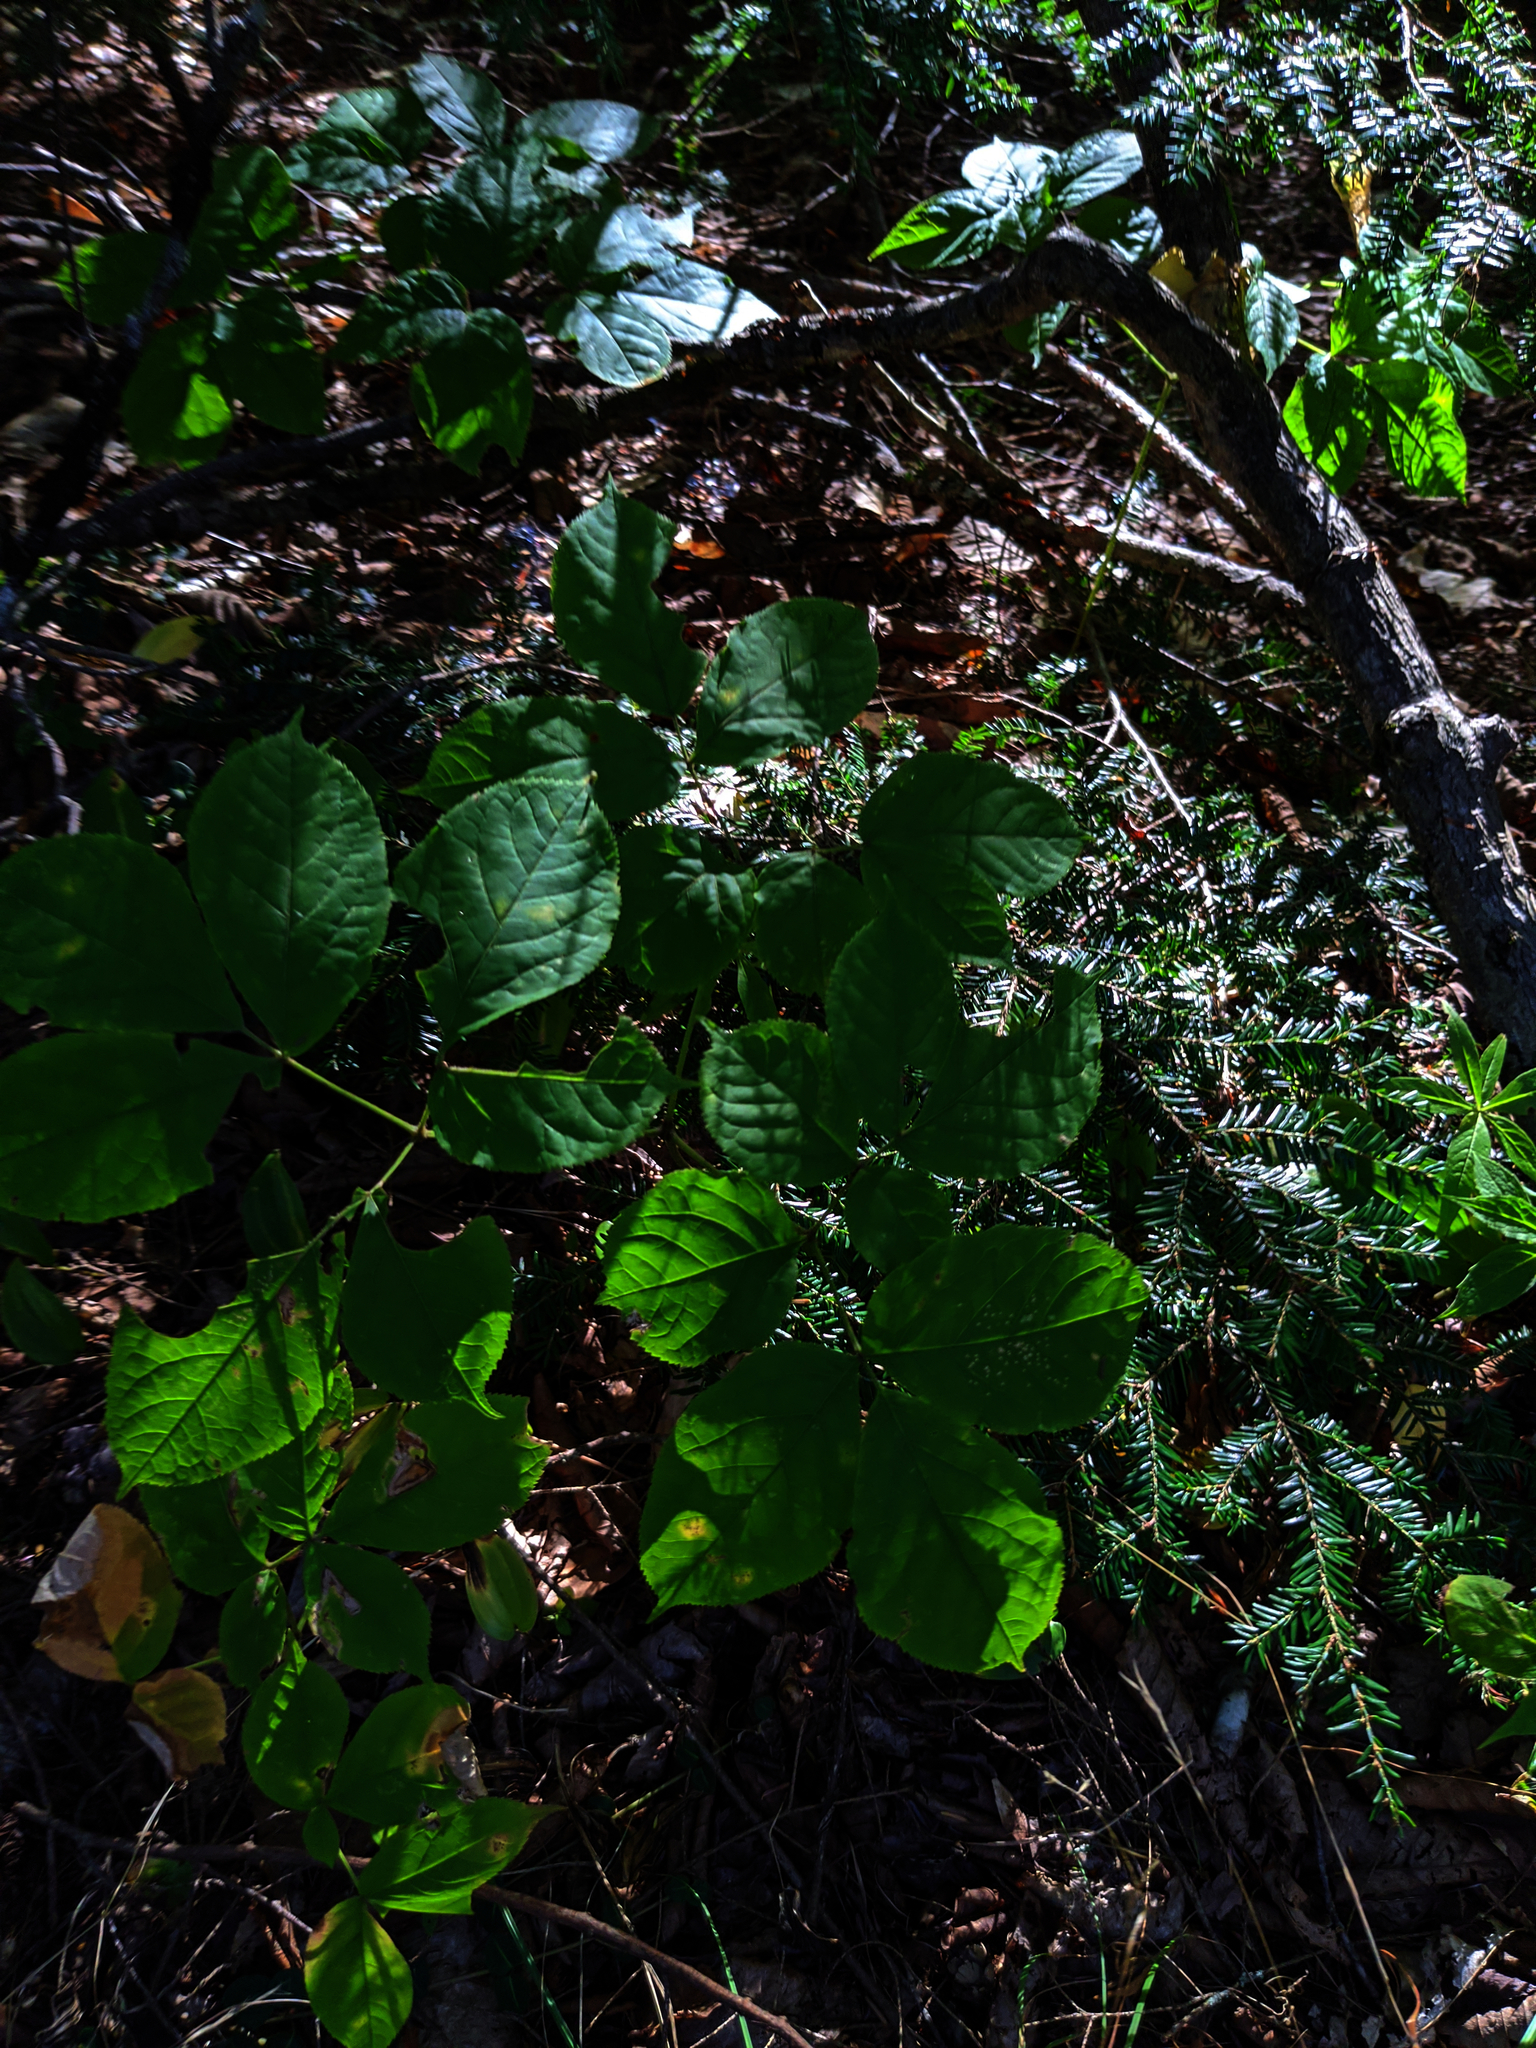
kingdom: Plantae
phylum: Tracheophyta
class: Pinopsida
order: Pinales
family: Pinaceae
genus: Tsuga
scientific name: Tsuga canadensis
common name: Eastern hemlock
